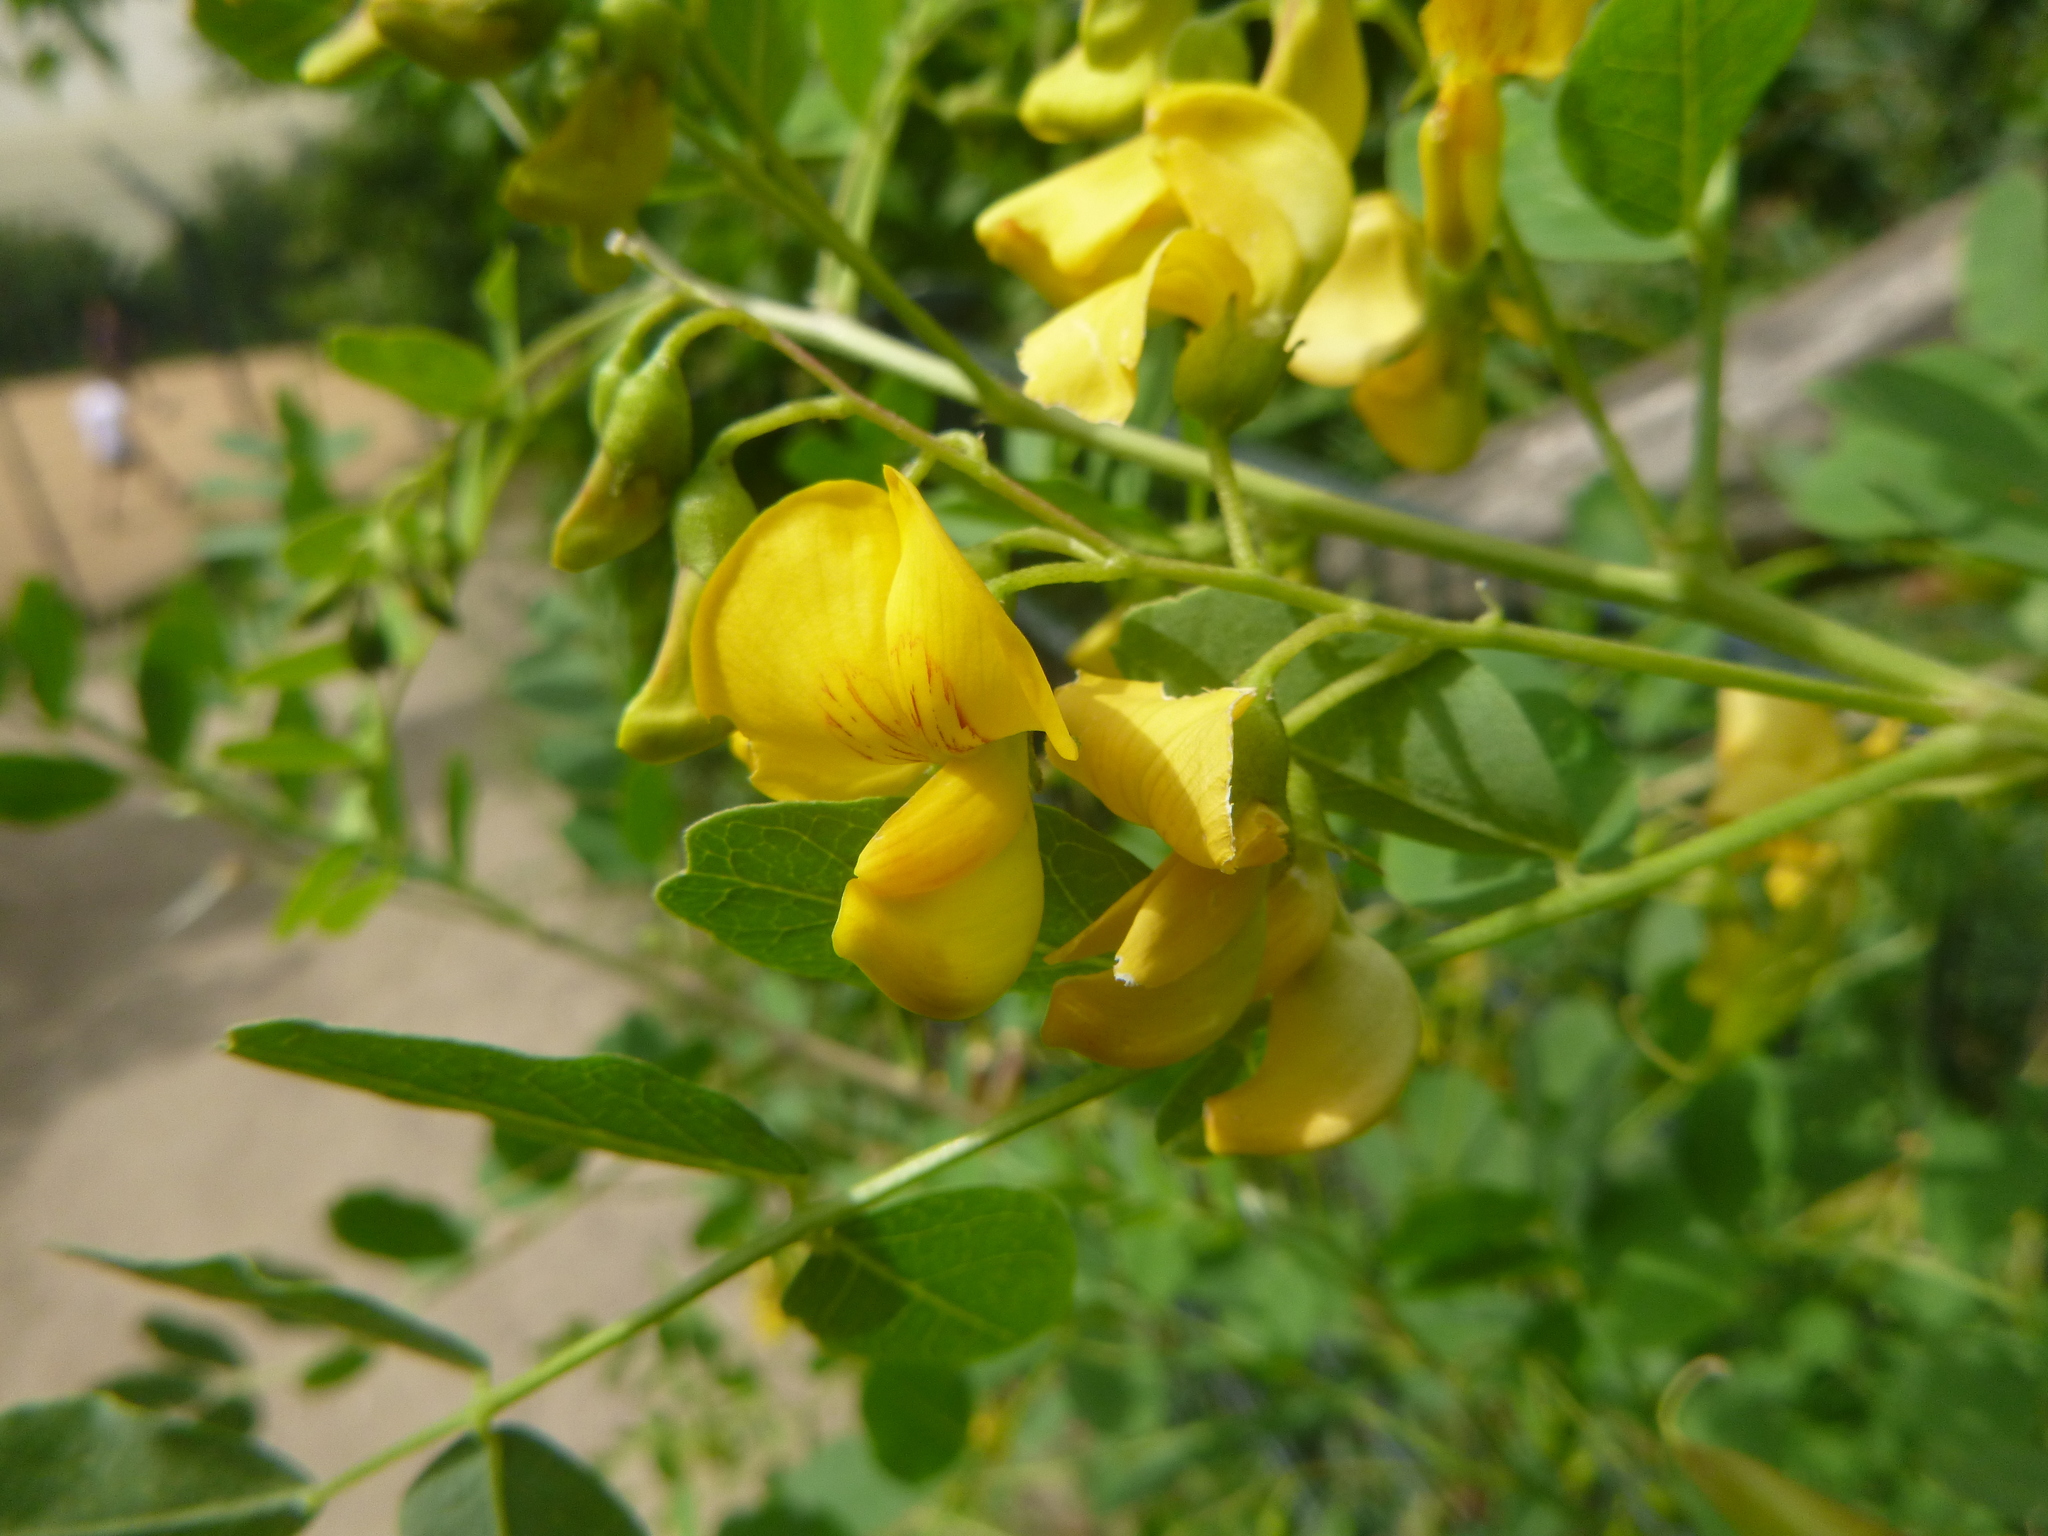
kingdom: Plantae
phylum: Tracheophyta
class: Magnoliopsida
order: Fabales
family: Fabaceae
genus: Colutea
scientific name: Colutea arborescens
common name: Bladder-senna
